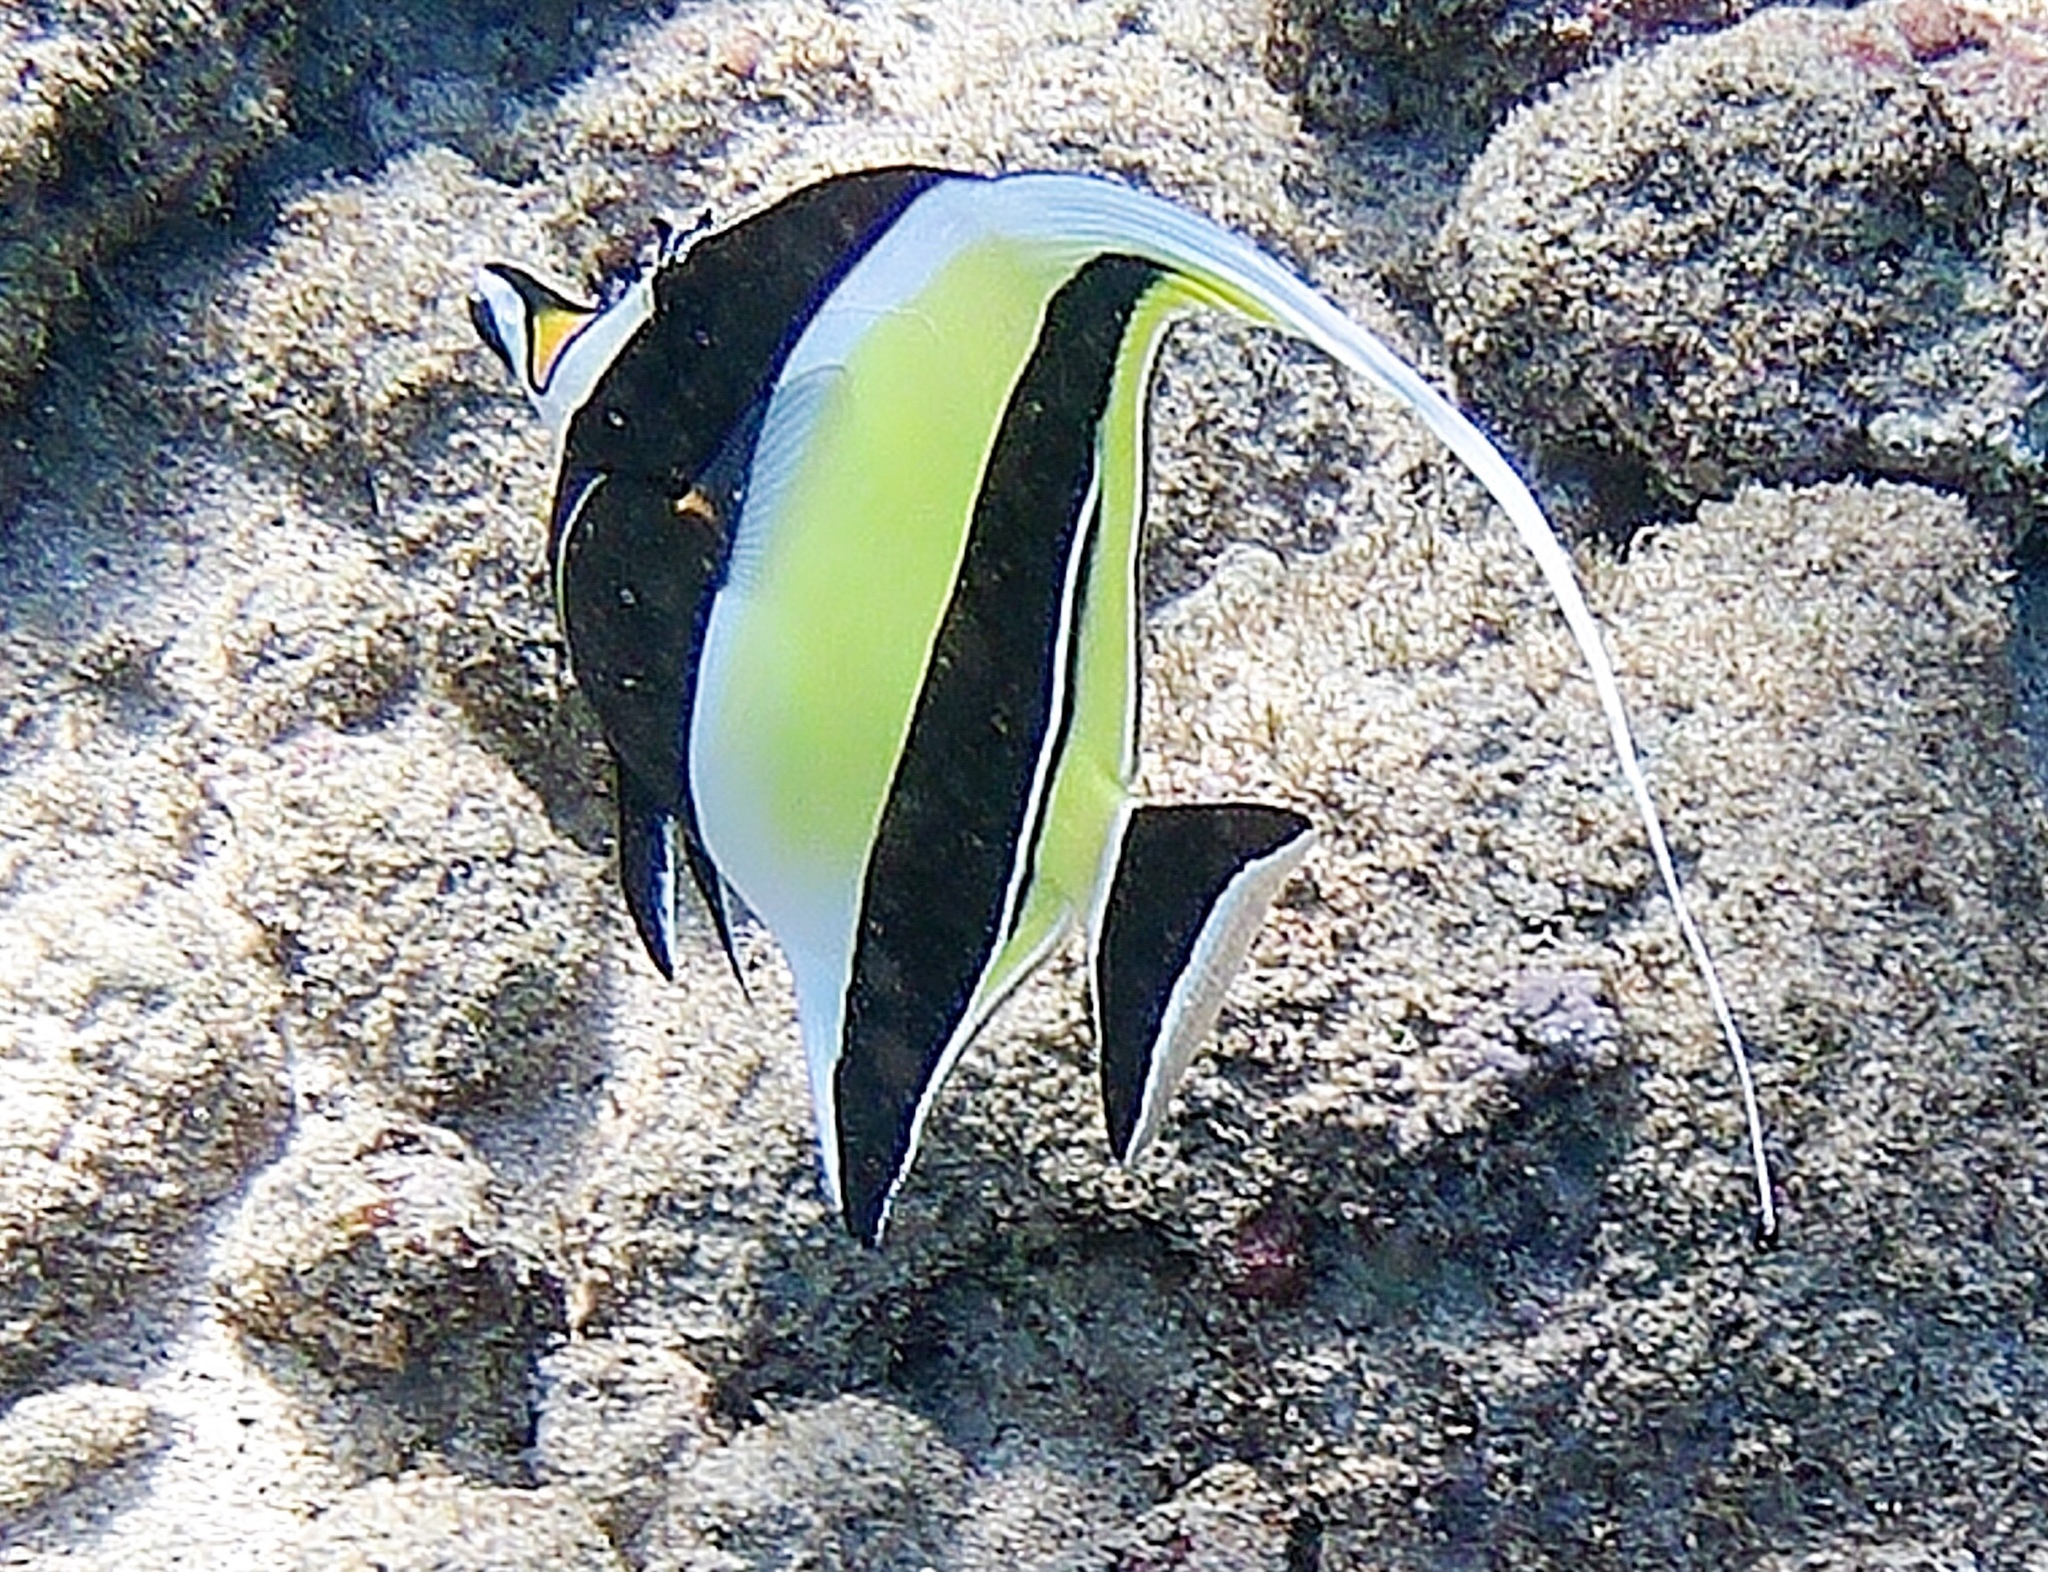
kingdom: Animalia
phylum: Chordata
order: Perciformes
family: Zanclidae
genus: Zanclus
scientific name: Zanclus cornutus
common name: Moorish idol
